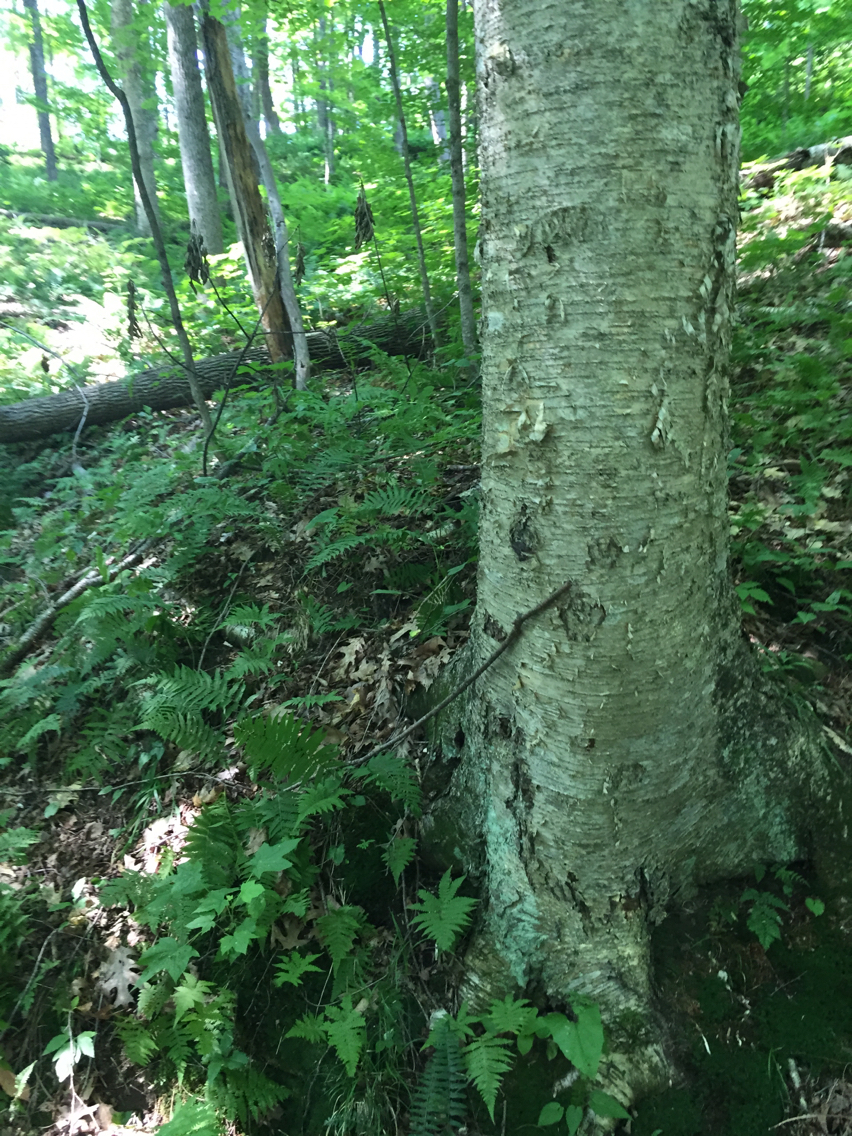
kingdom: Plantae
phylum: Tracheophyta
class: Magnoliopsida
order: Fagales
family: Betulaceae
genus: Betula
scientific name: Betula alleghaniensis
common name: Yellow birch
